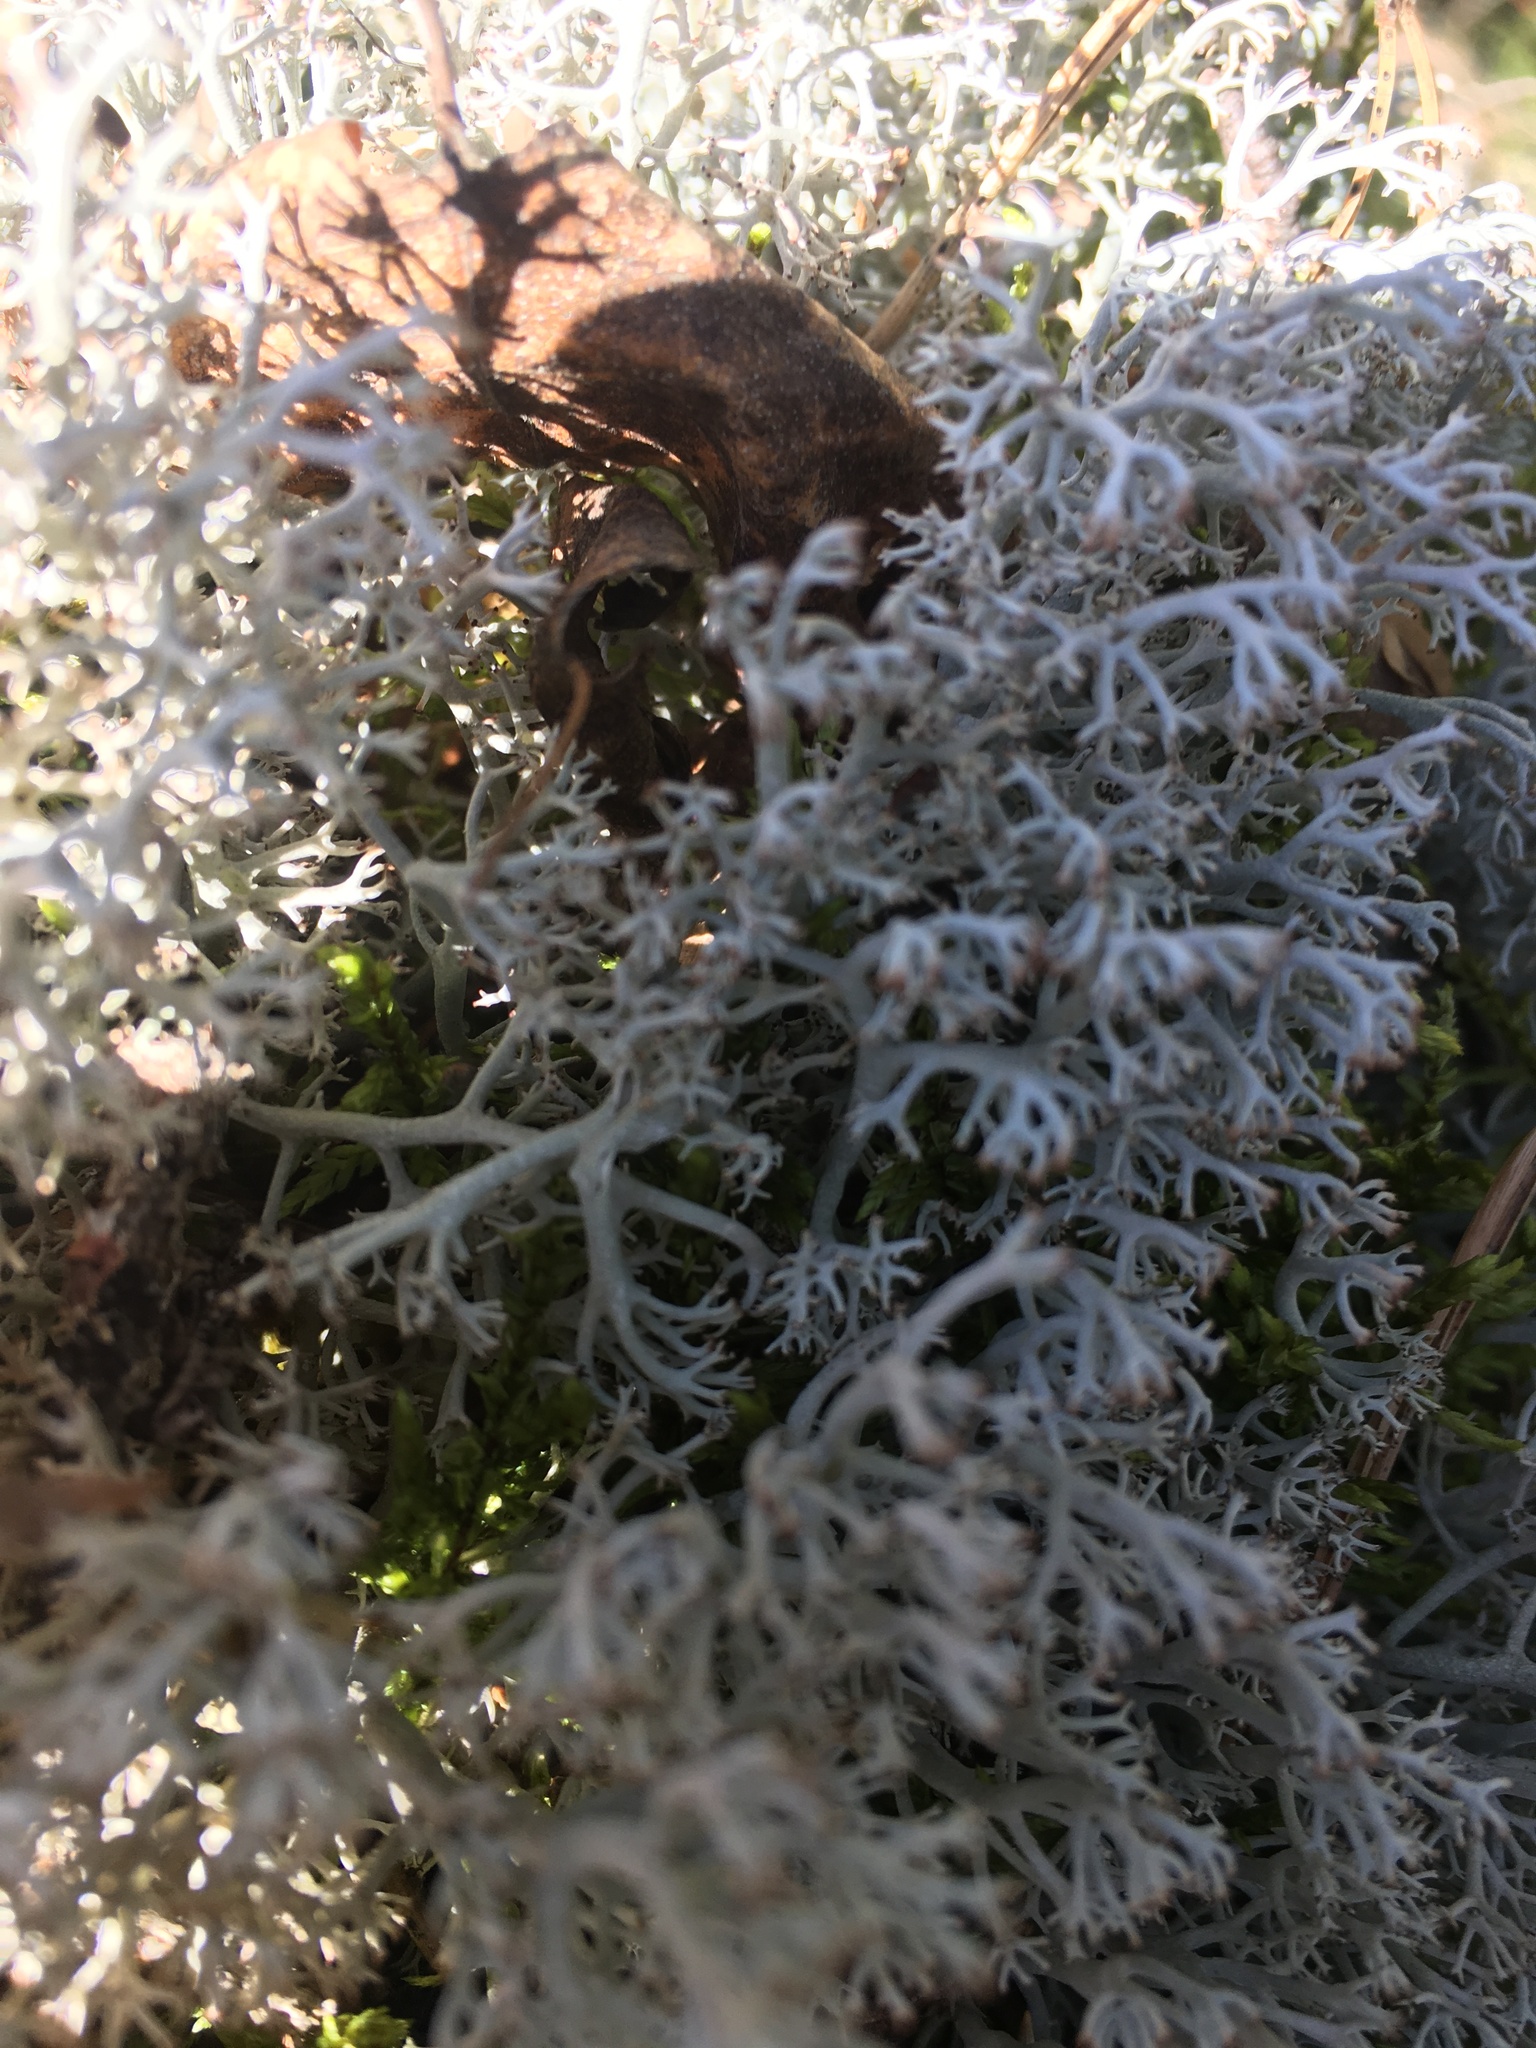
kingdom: Fungi
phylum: Ascomycota
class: Lecanoromycetes
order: Lecanorales
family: Cladoniaceae
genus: Cladonia
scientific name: Cladonia rangiferina
